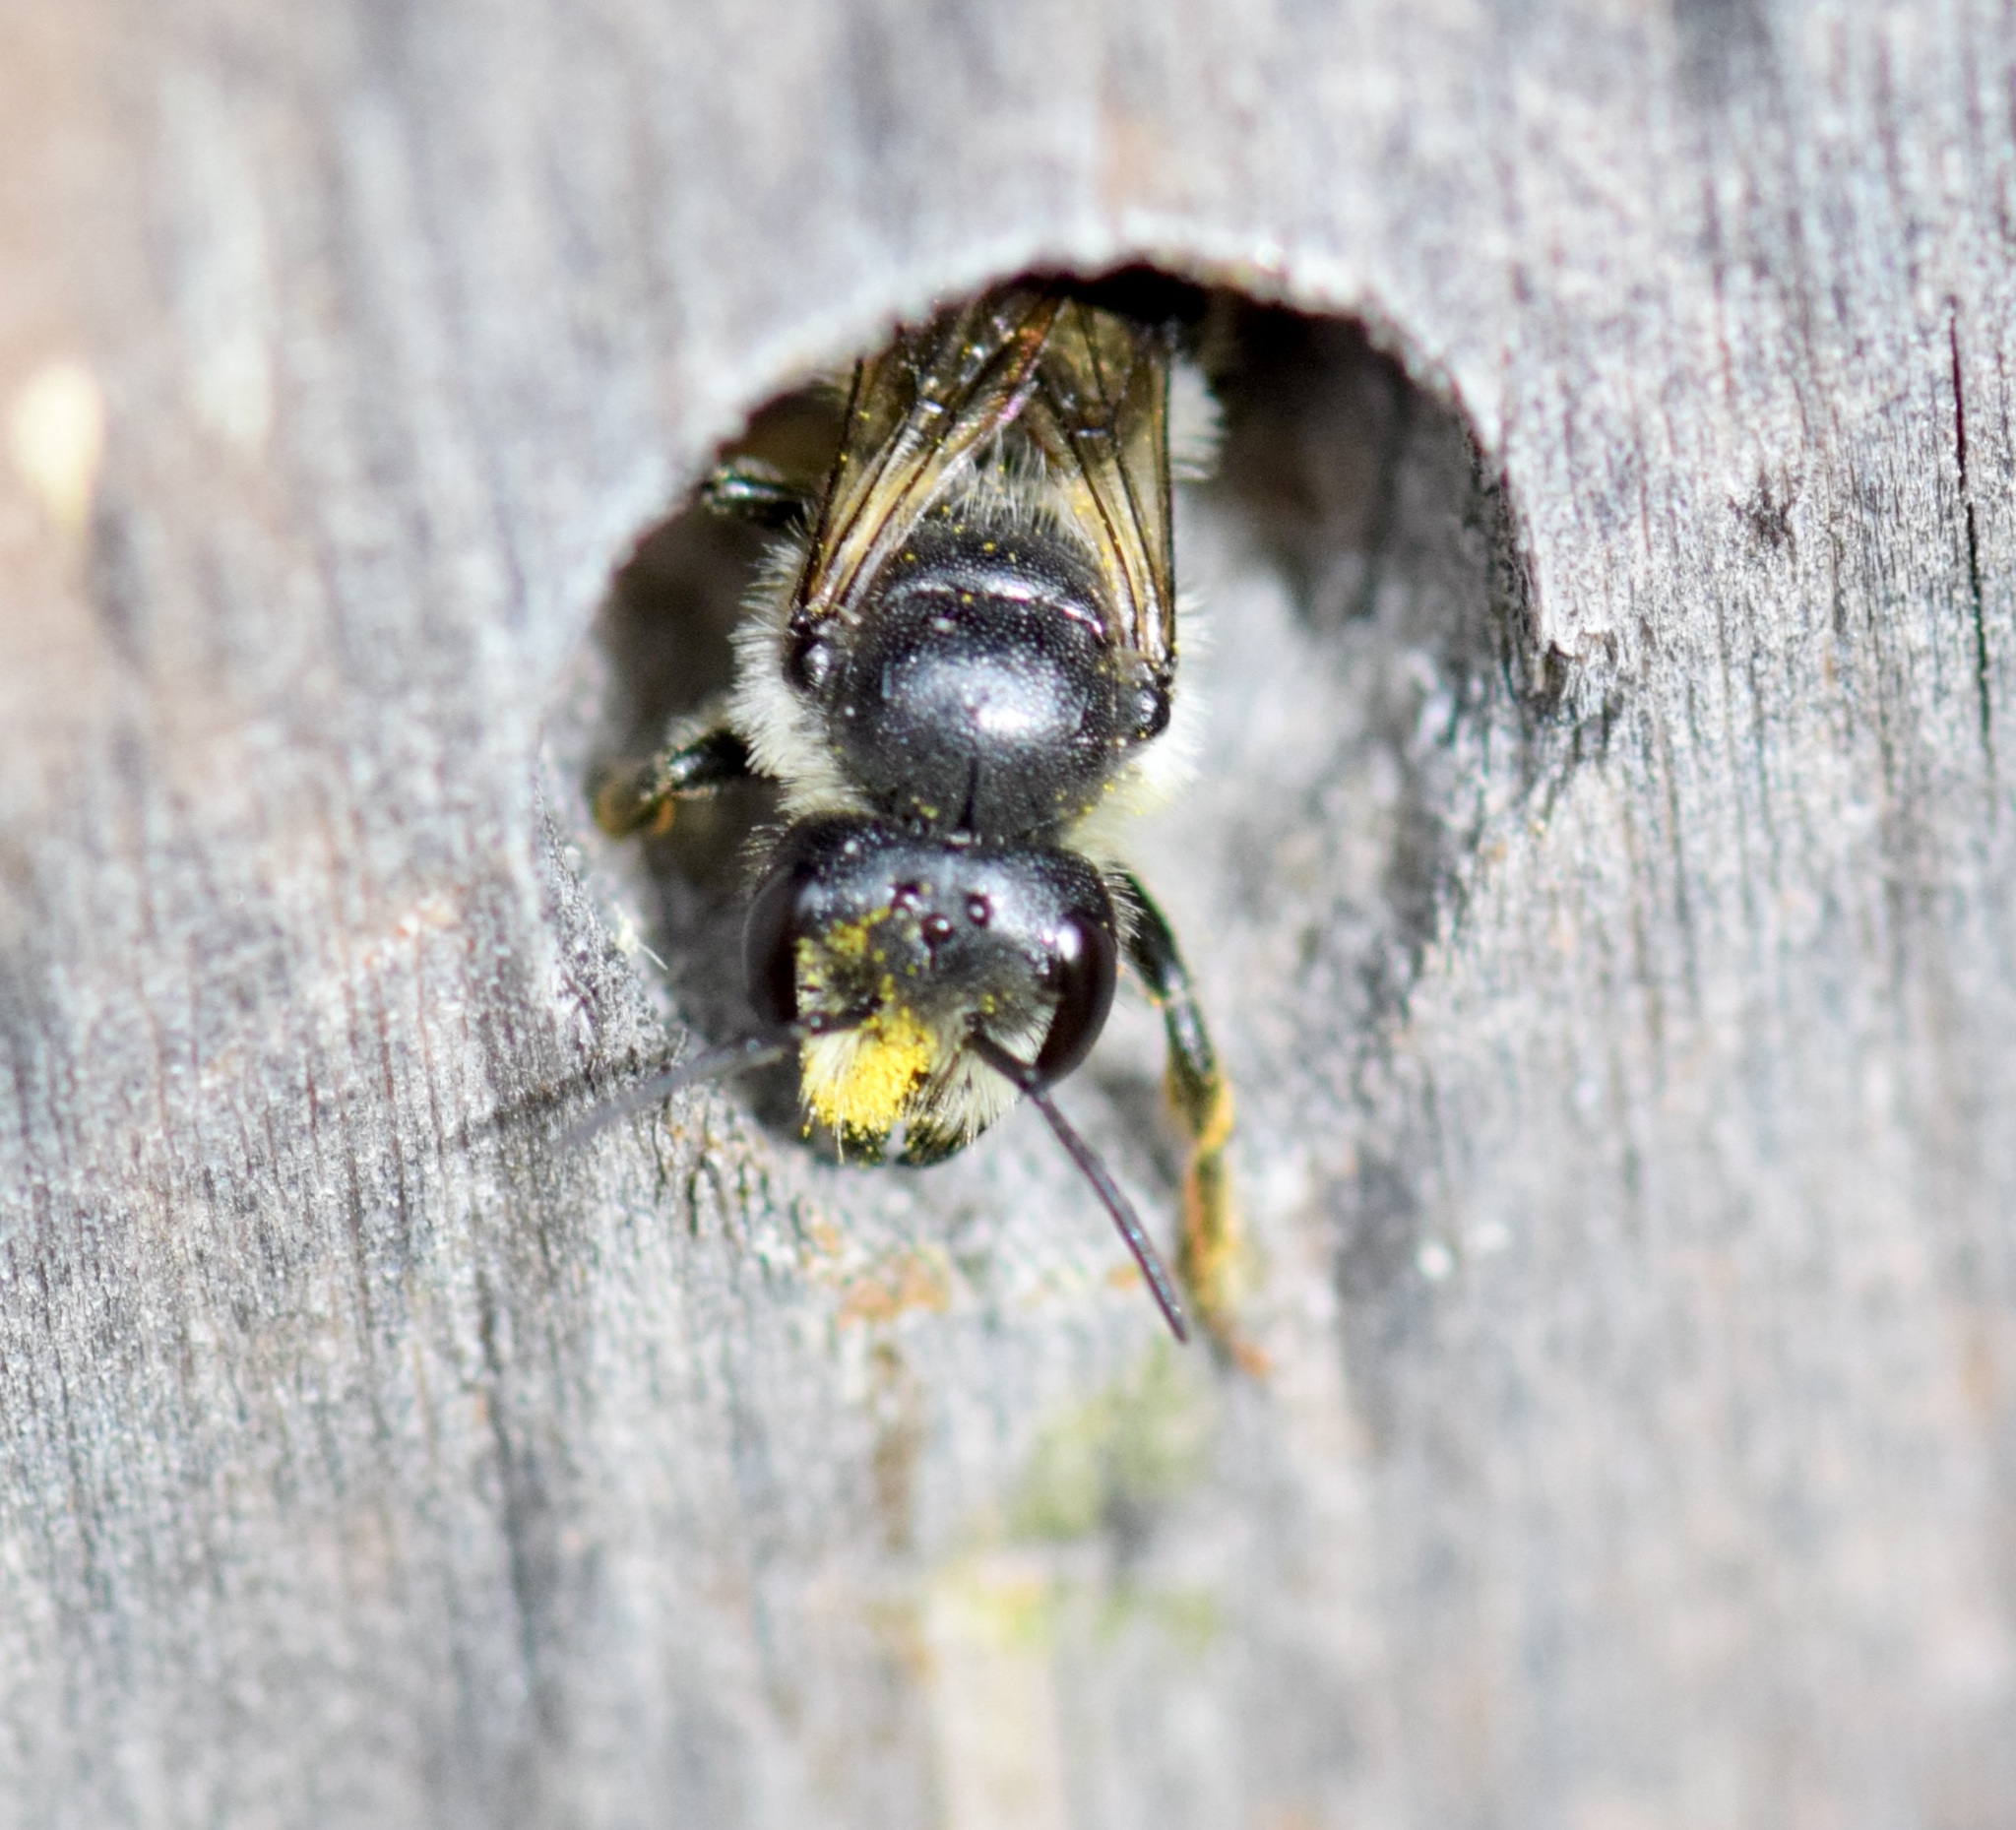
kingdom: Animalia
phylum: Arthropoda
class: Insecta
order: Hymenoptera
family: Megachilidae
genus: Megachile
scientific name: Megachile relativa
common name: Golden-tailed leafcutter
